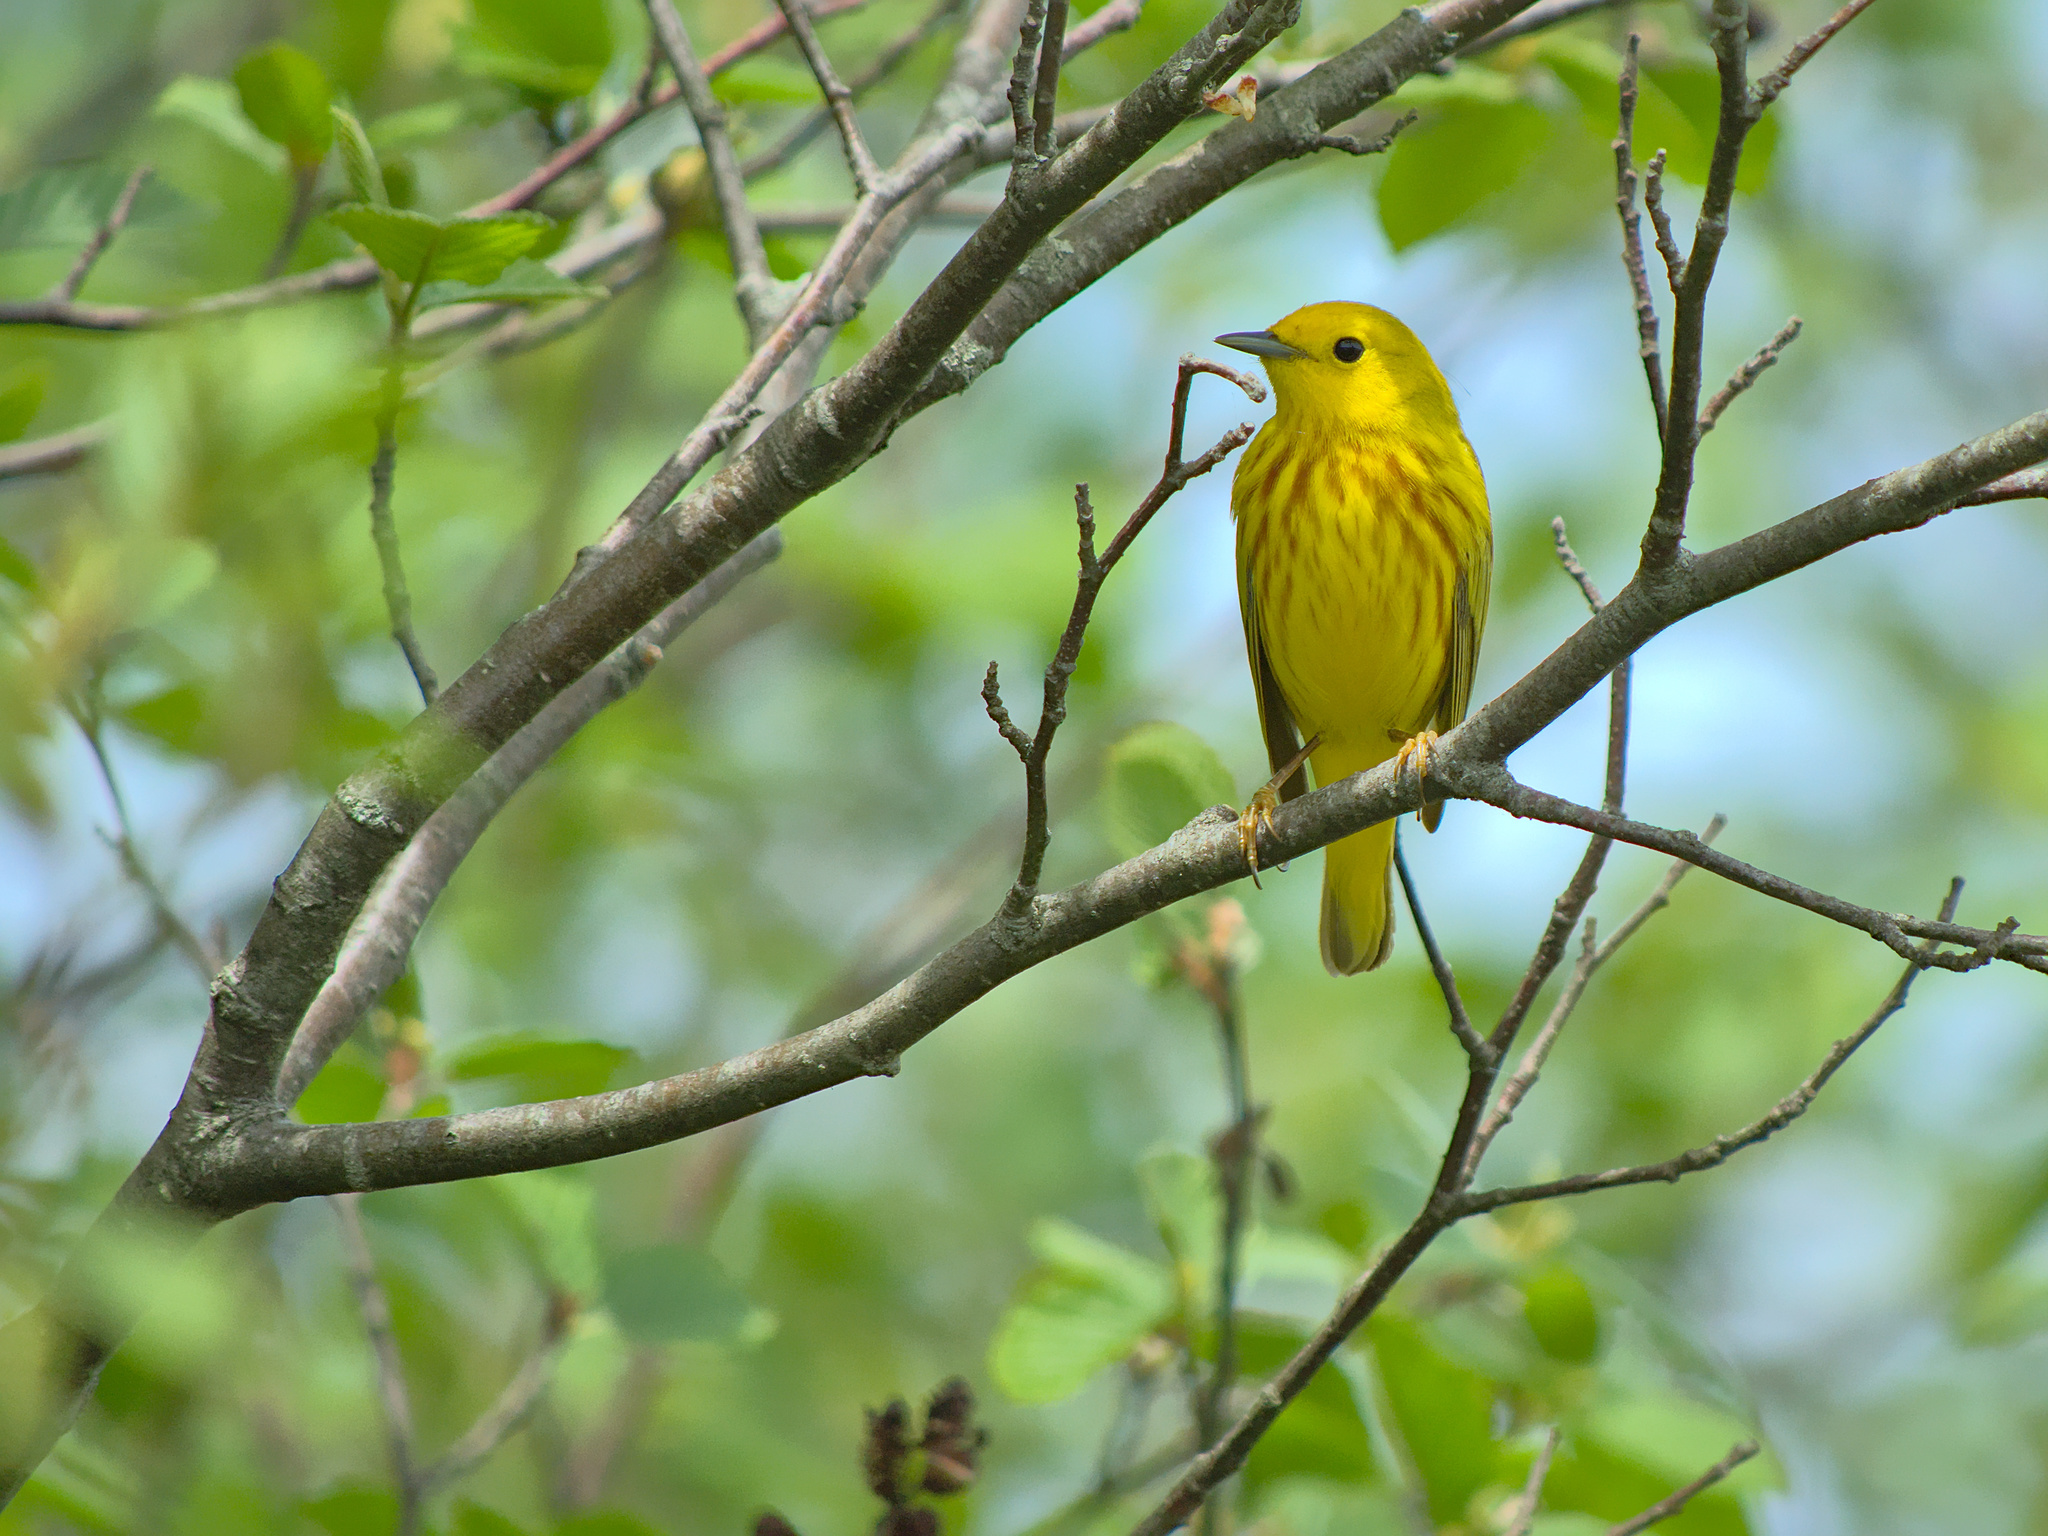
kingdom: Animalia
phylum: Chordata
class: Aves
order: Passeriformes
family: Parulidae
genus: Setophaga
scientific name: Setophaga petechia
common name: Yellow warbler
